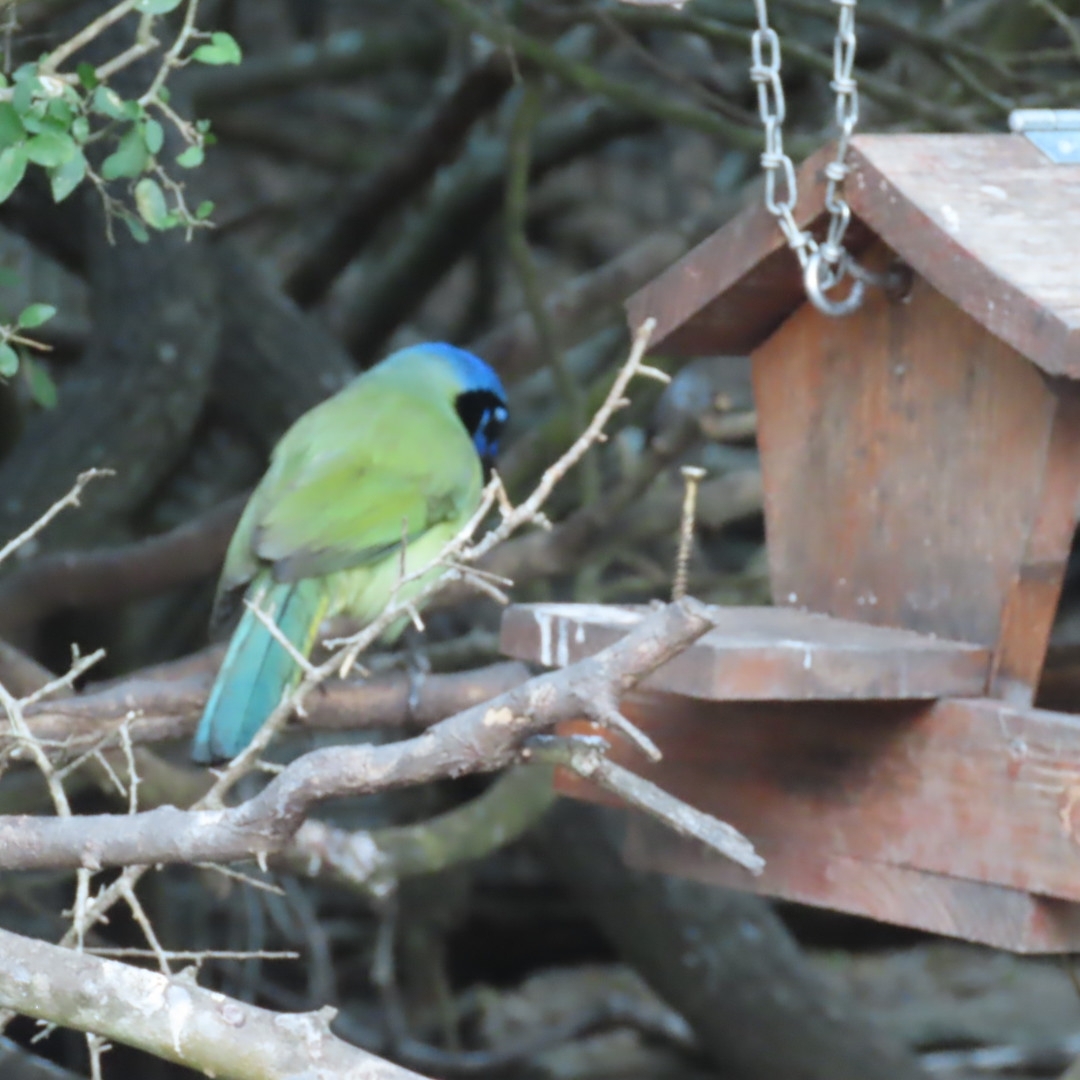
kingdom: Animalia
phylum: Chordata
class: Aves
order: Passeriformes
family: Corvidae
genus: Cyanocorax
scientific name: Cyanocorax yncas
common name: Green jay
